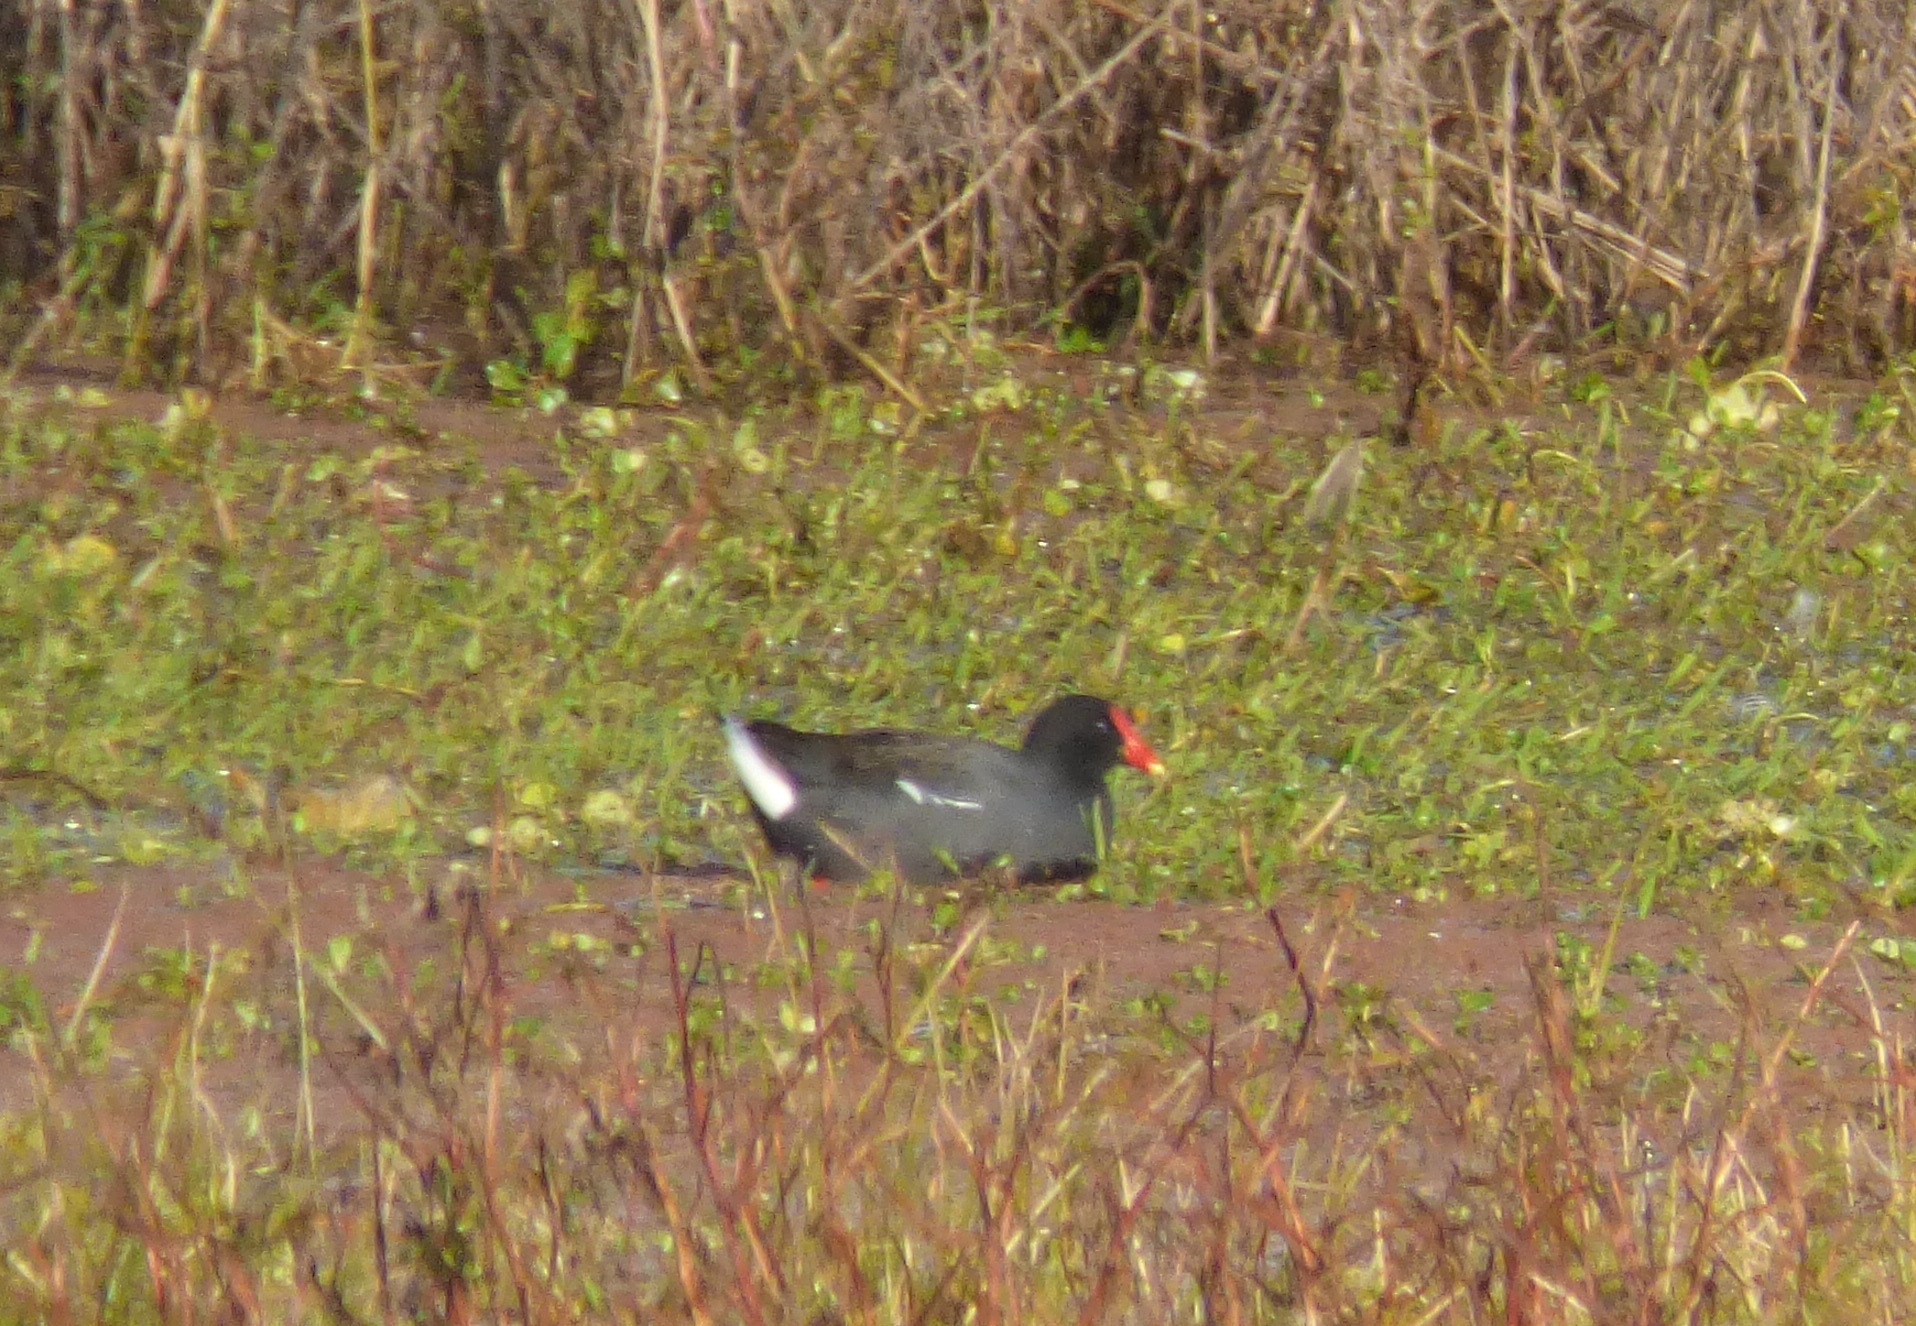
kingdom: Animalia
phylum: Chordata
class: Aves
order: Gruiformes
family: Rallidae
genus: Gallinula
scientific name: Gallinula chloropus
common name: Common moorhen
